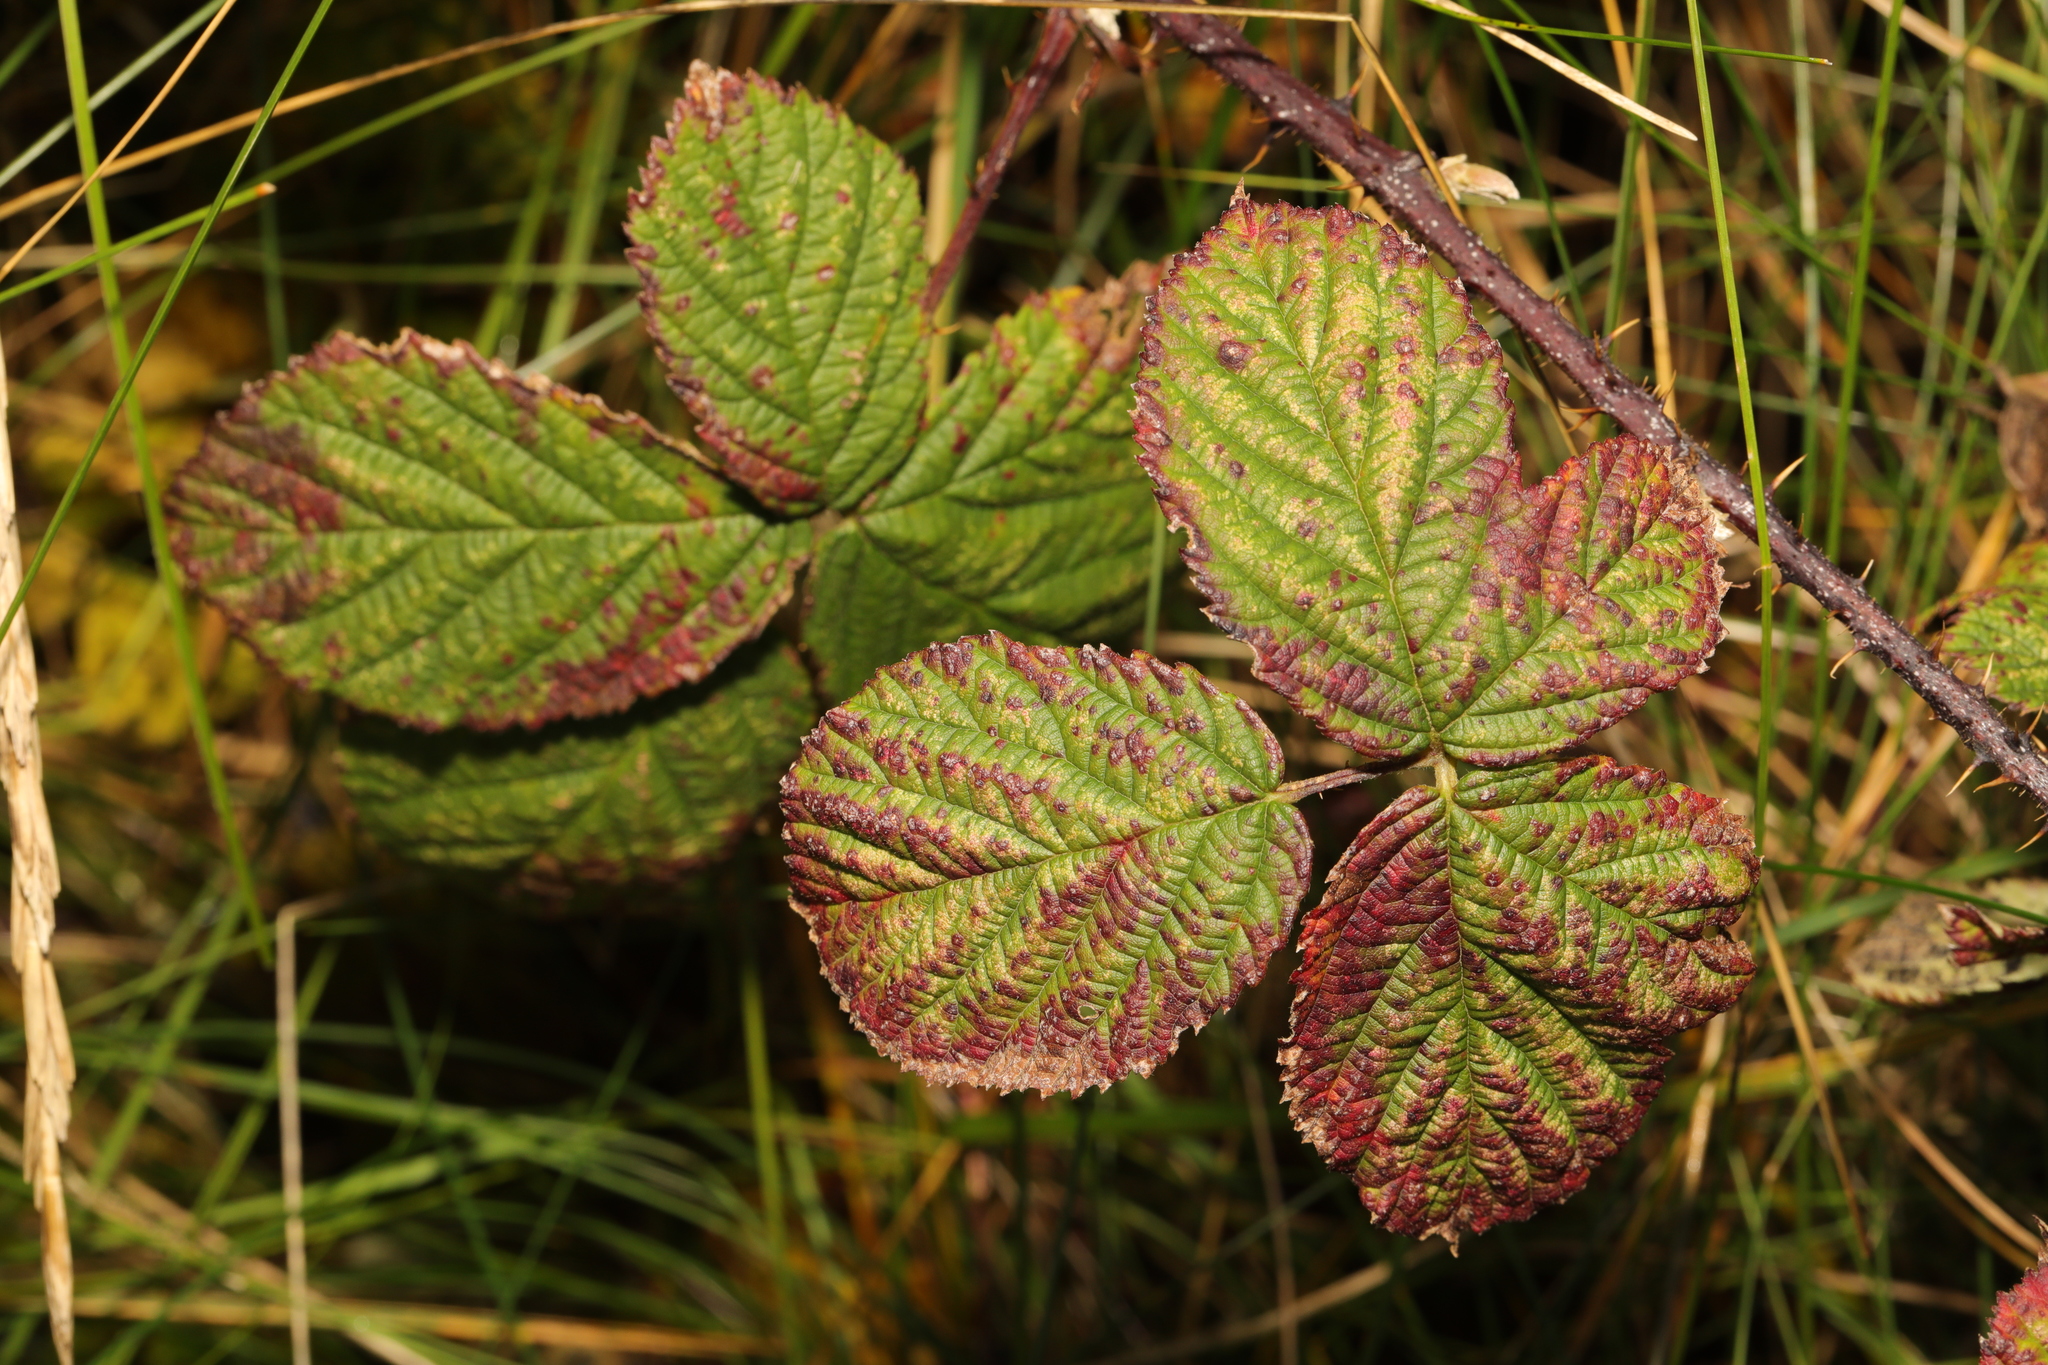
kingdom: Plantae
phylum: Tracheophyta
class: Magnoliopsida
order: Rosales
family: Rosaceae
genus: Rubus
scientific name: Rubus horrefactus
